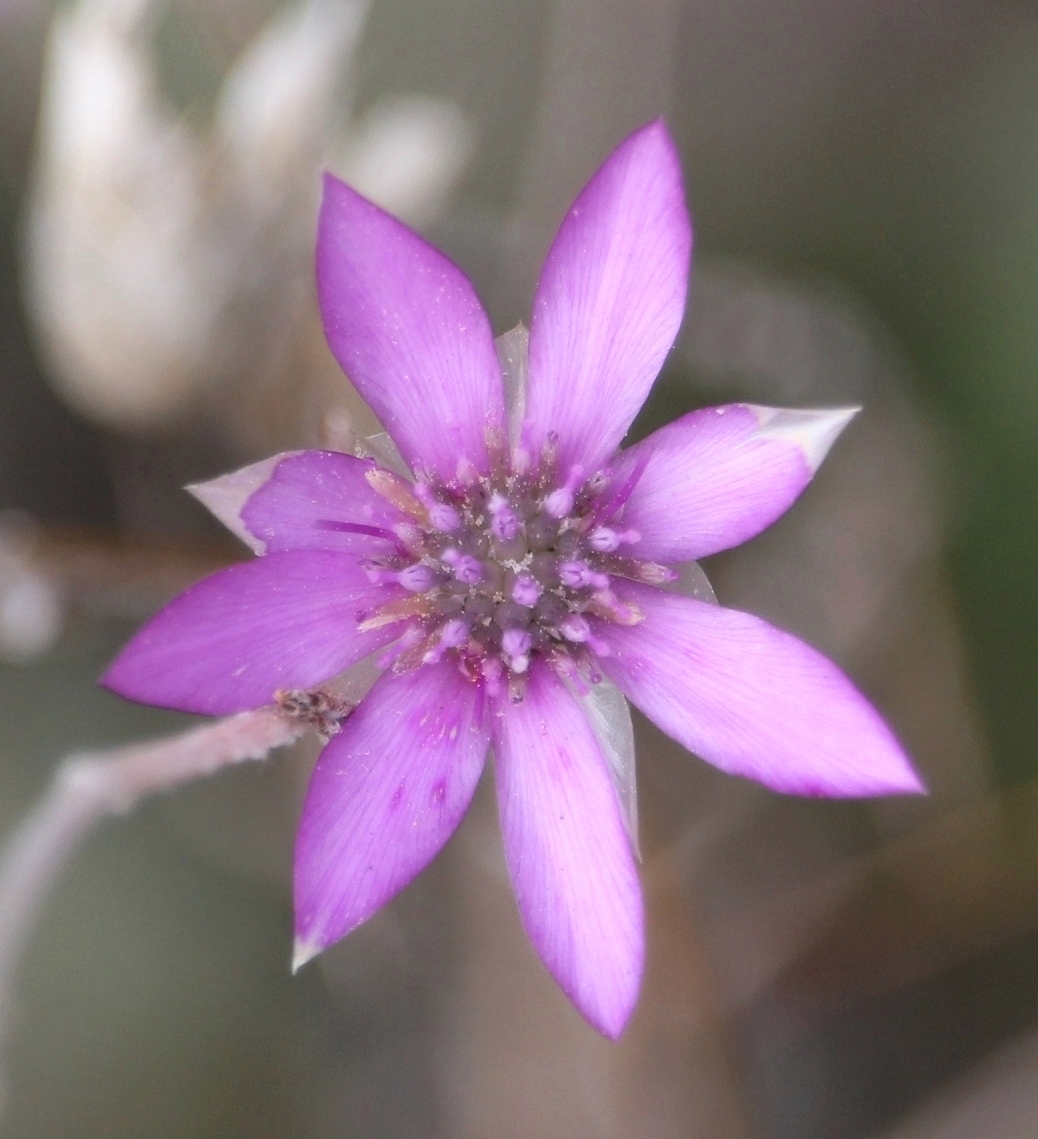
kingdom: Plantae
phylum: Tracheophyta
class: Magnoliopsida
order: Asterales
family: Asteraceae
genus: Xeranthemum
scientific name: Xeranthemum annuum
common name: Immortelle
